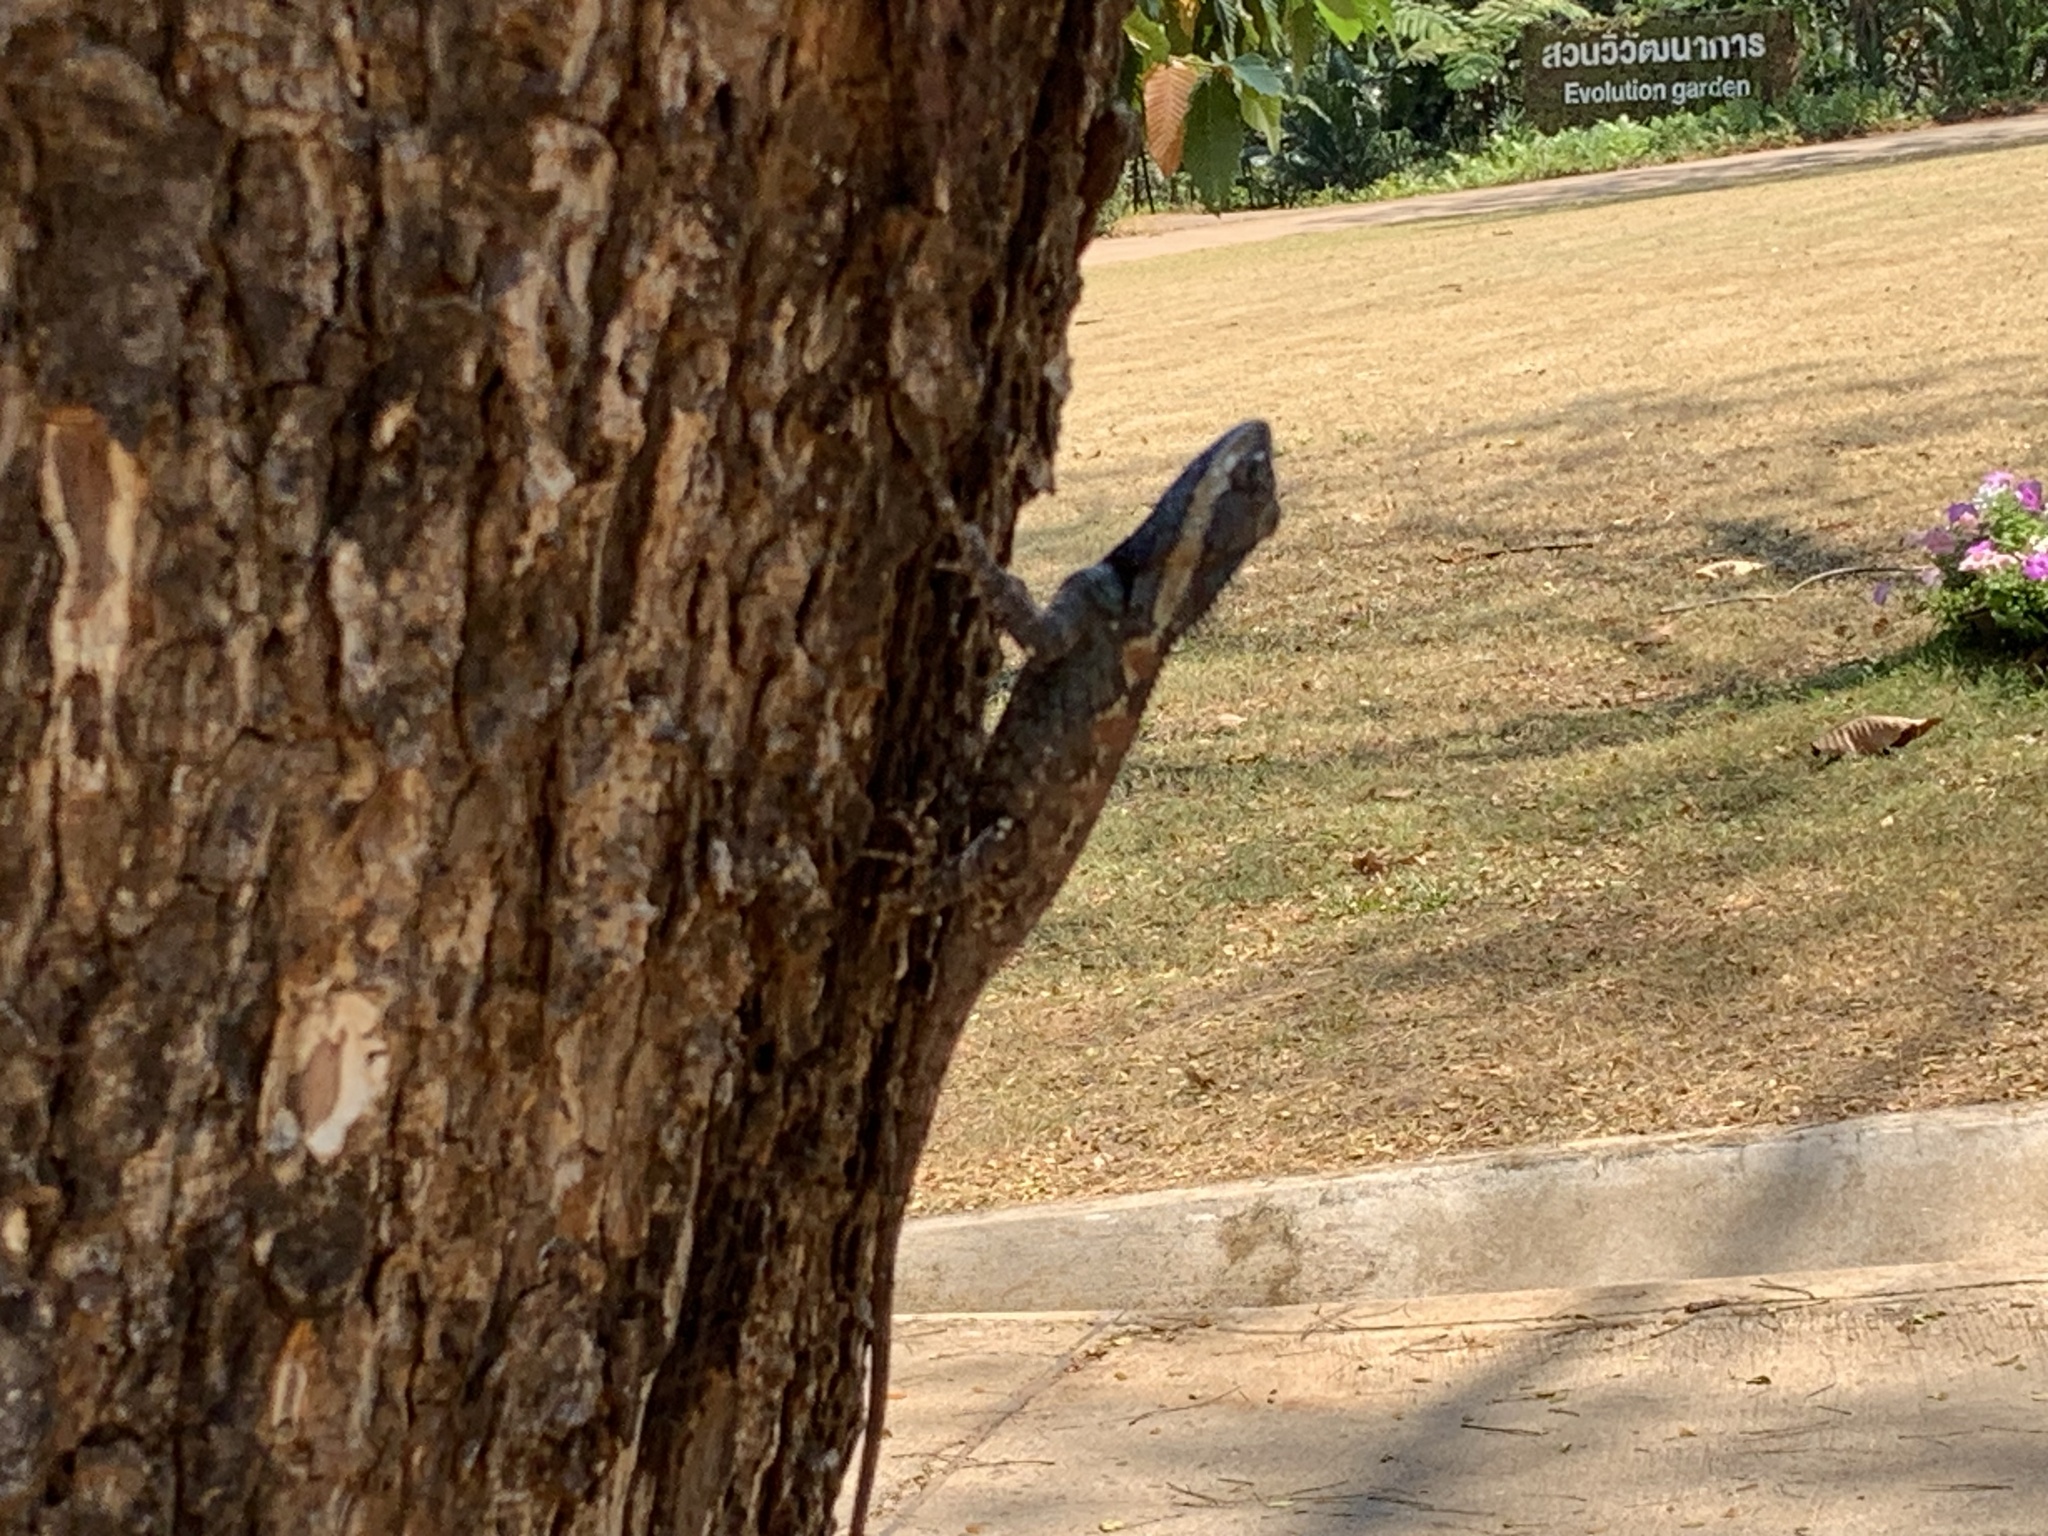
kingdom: Animalia
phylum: Chordata
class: Squamata
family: Agamidae
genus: Calotes
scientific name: Calotes goetzi
